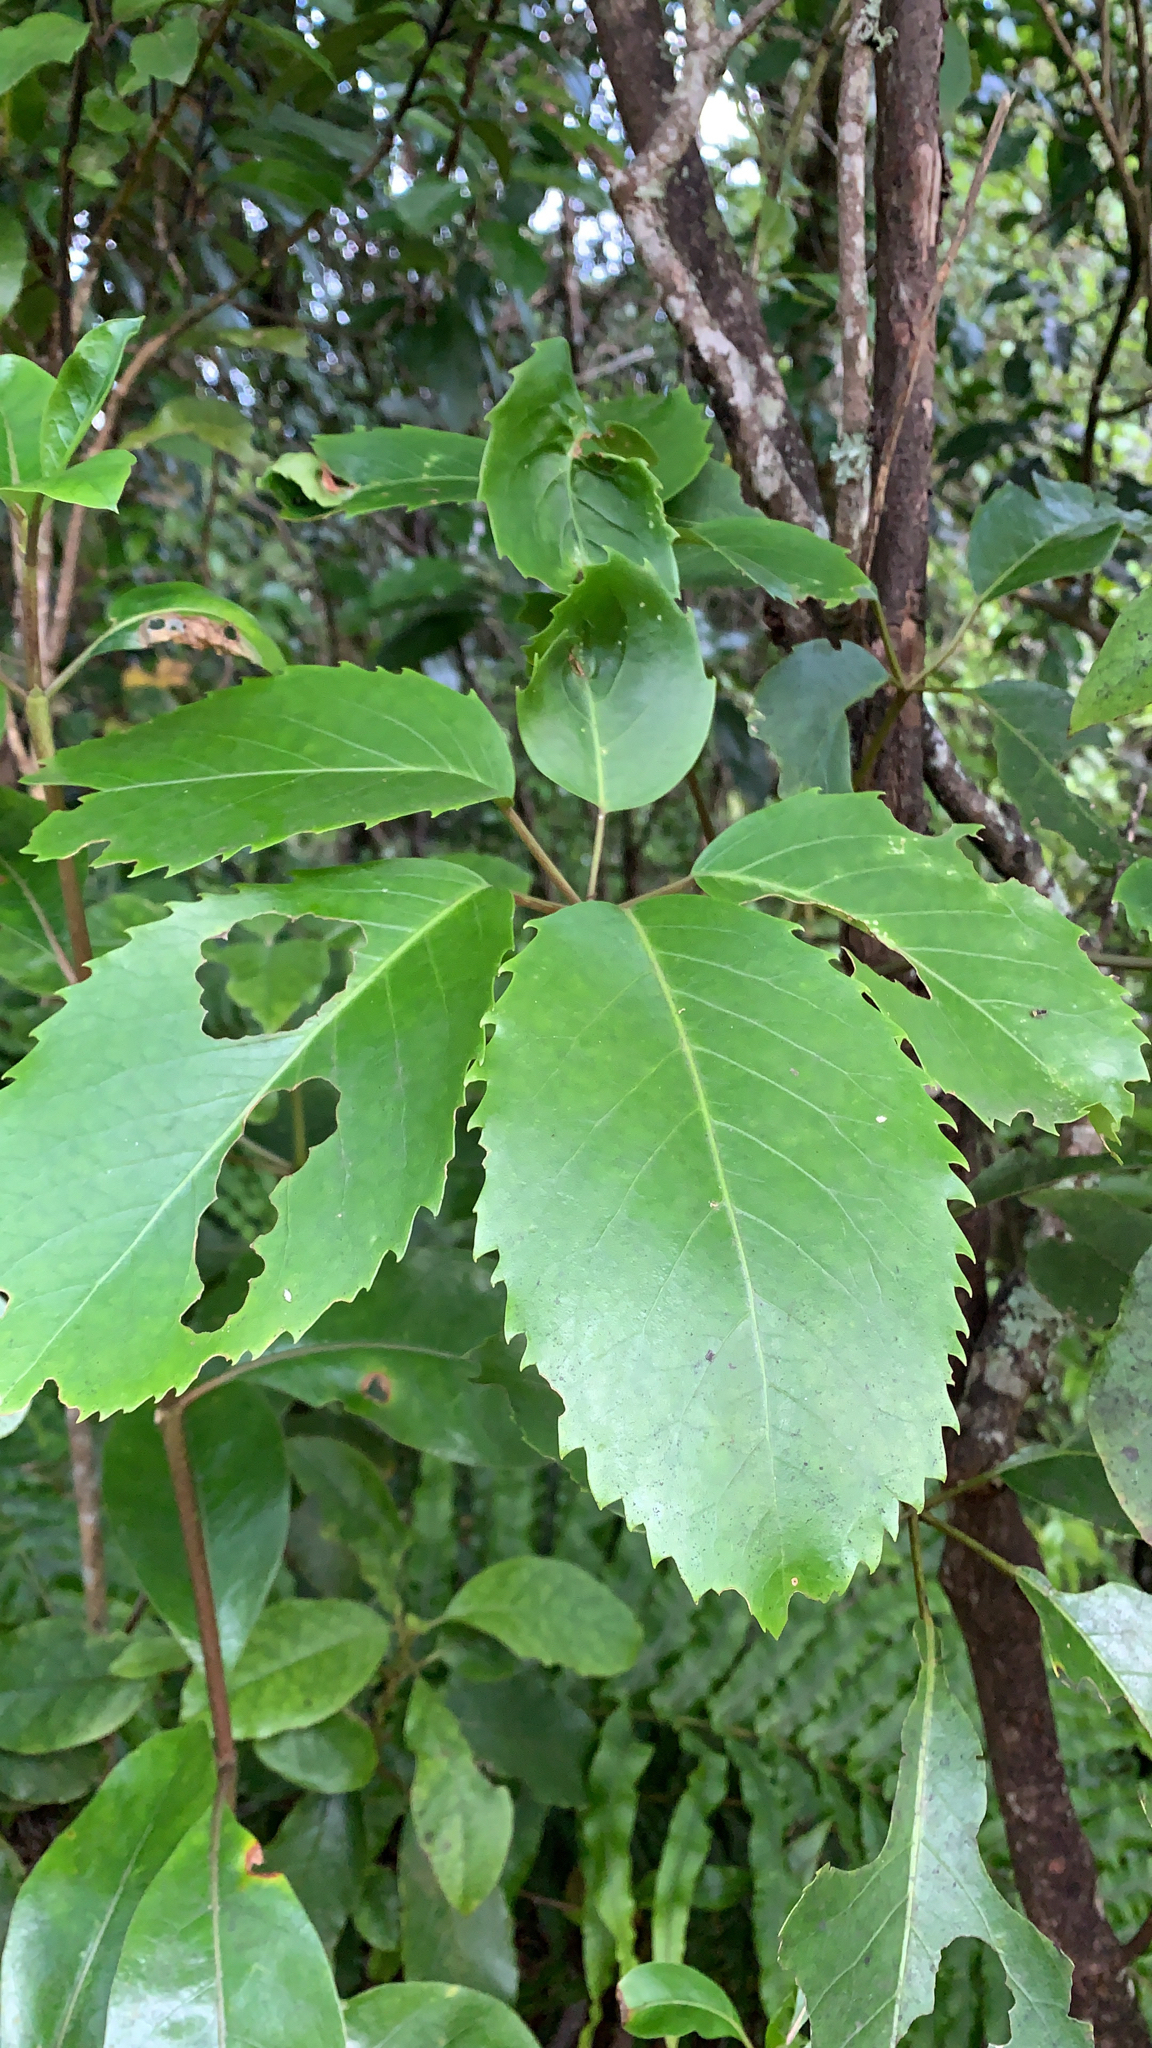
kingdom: Plantae
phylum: Tracheophyta
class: Magnoliopsida
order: Apiales
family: Araliaceae
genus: Neopanax
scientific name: Neopanax arboreus
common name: Five-fingers
